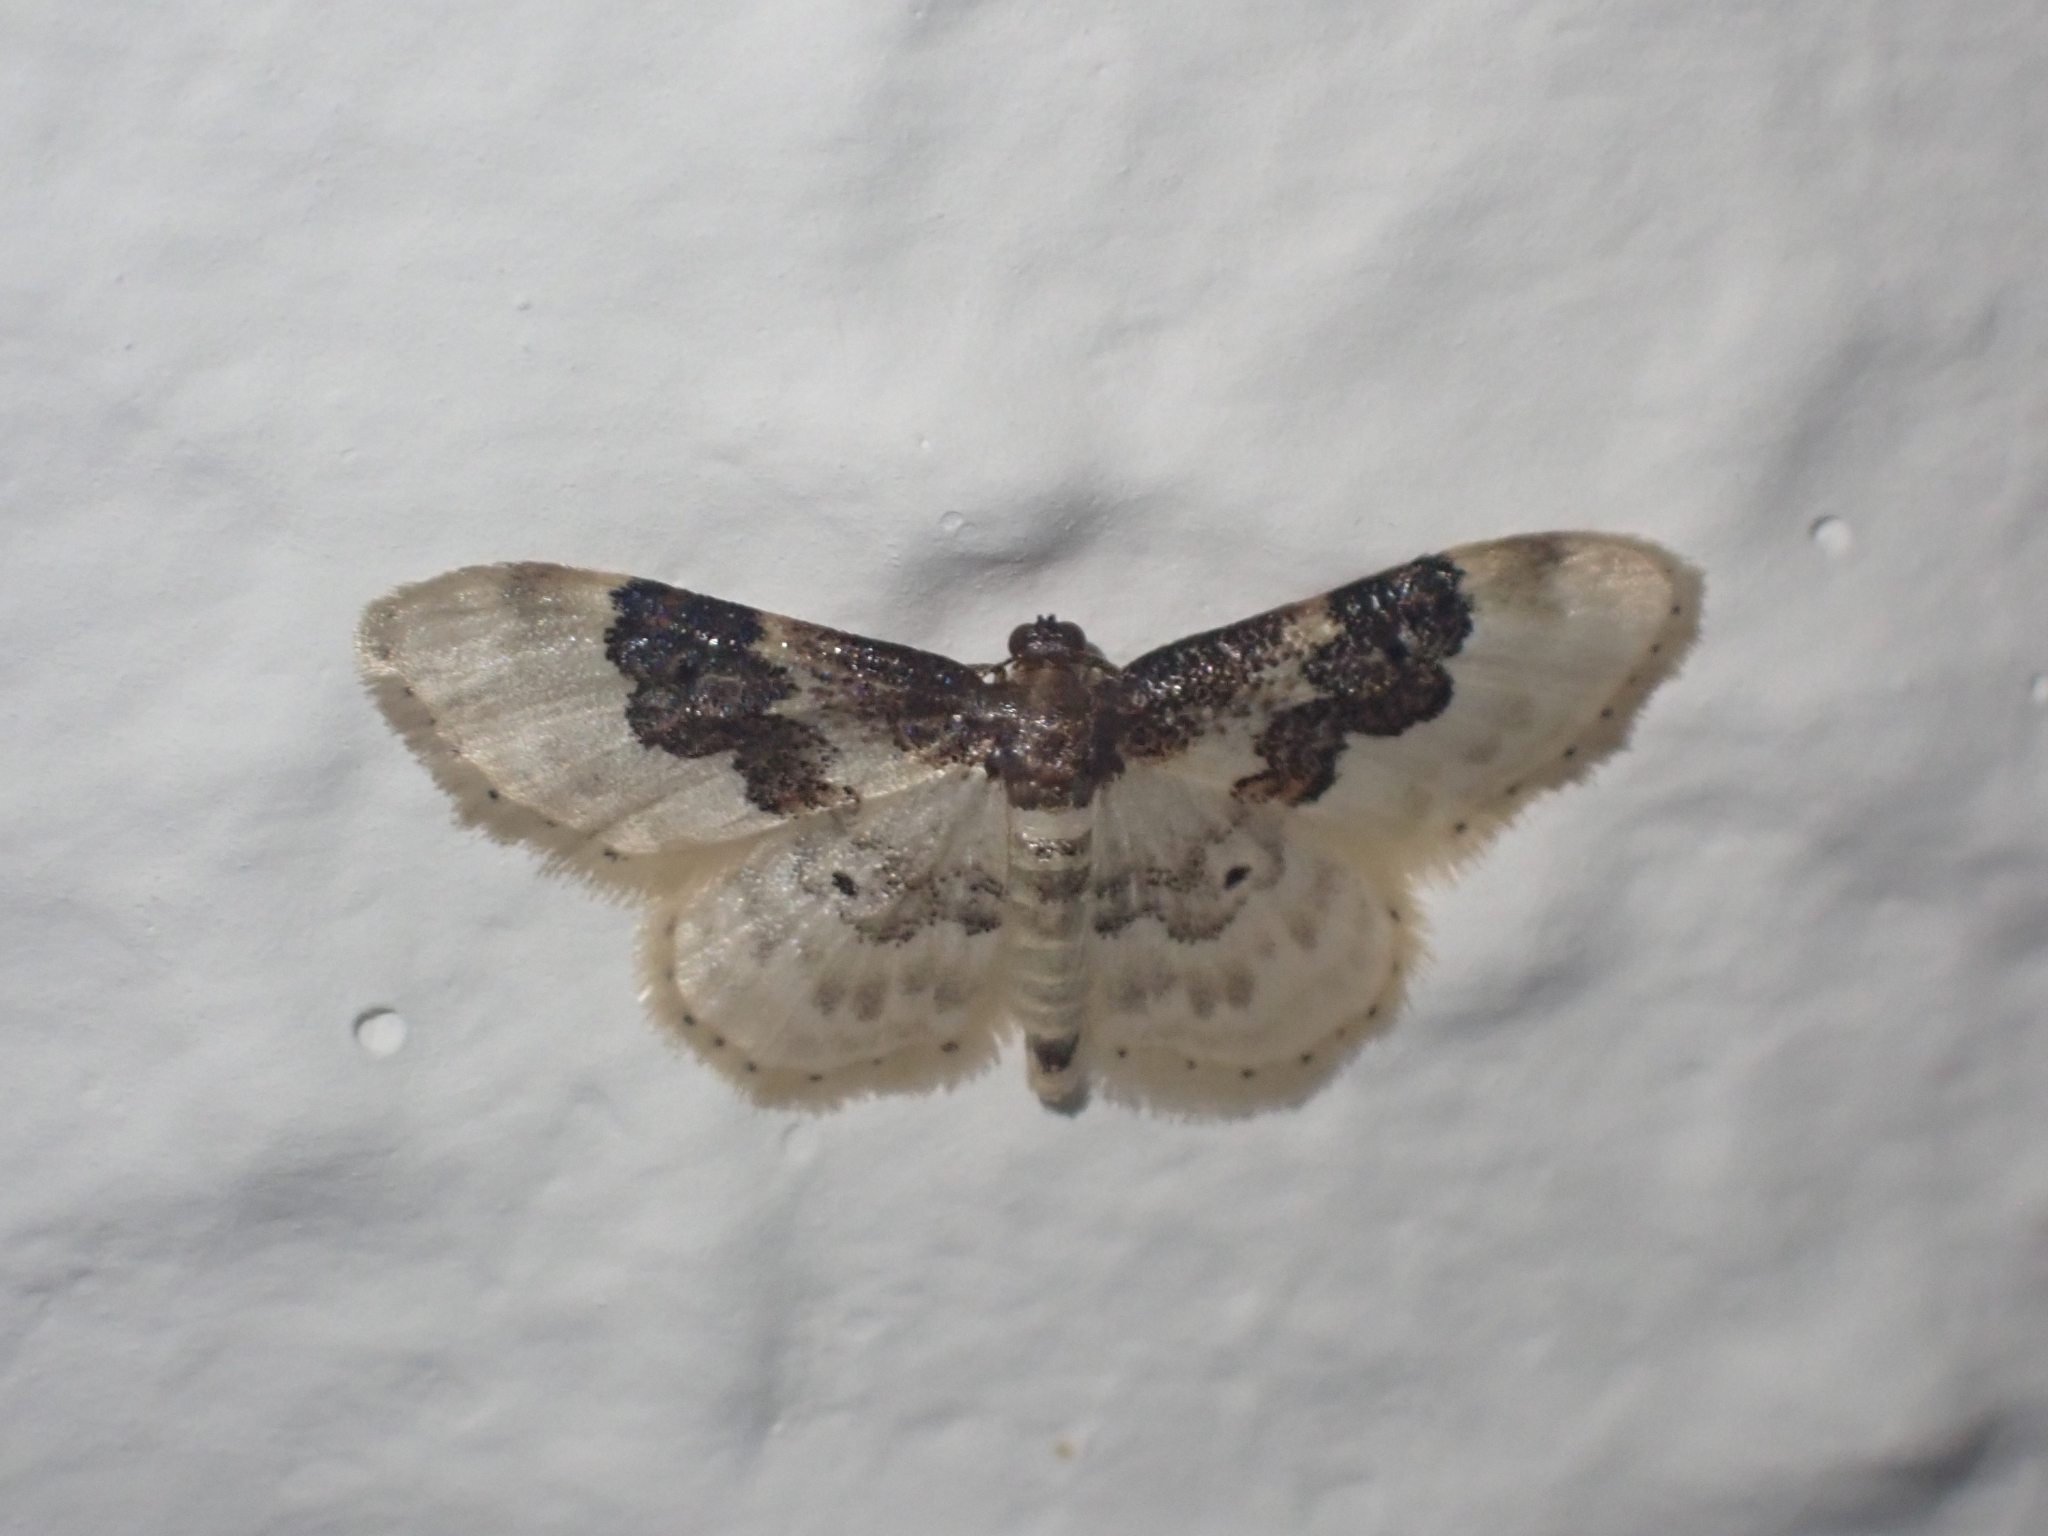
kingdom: Animalia
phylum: Arthropoda
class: Insecta
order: Lepidoptera
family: Geometridae
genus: Idaea
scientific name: Idaea rusticata
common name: Least carpet
